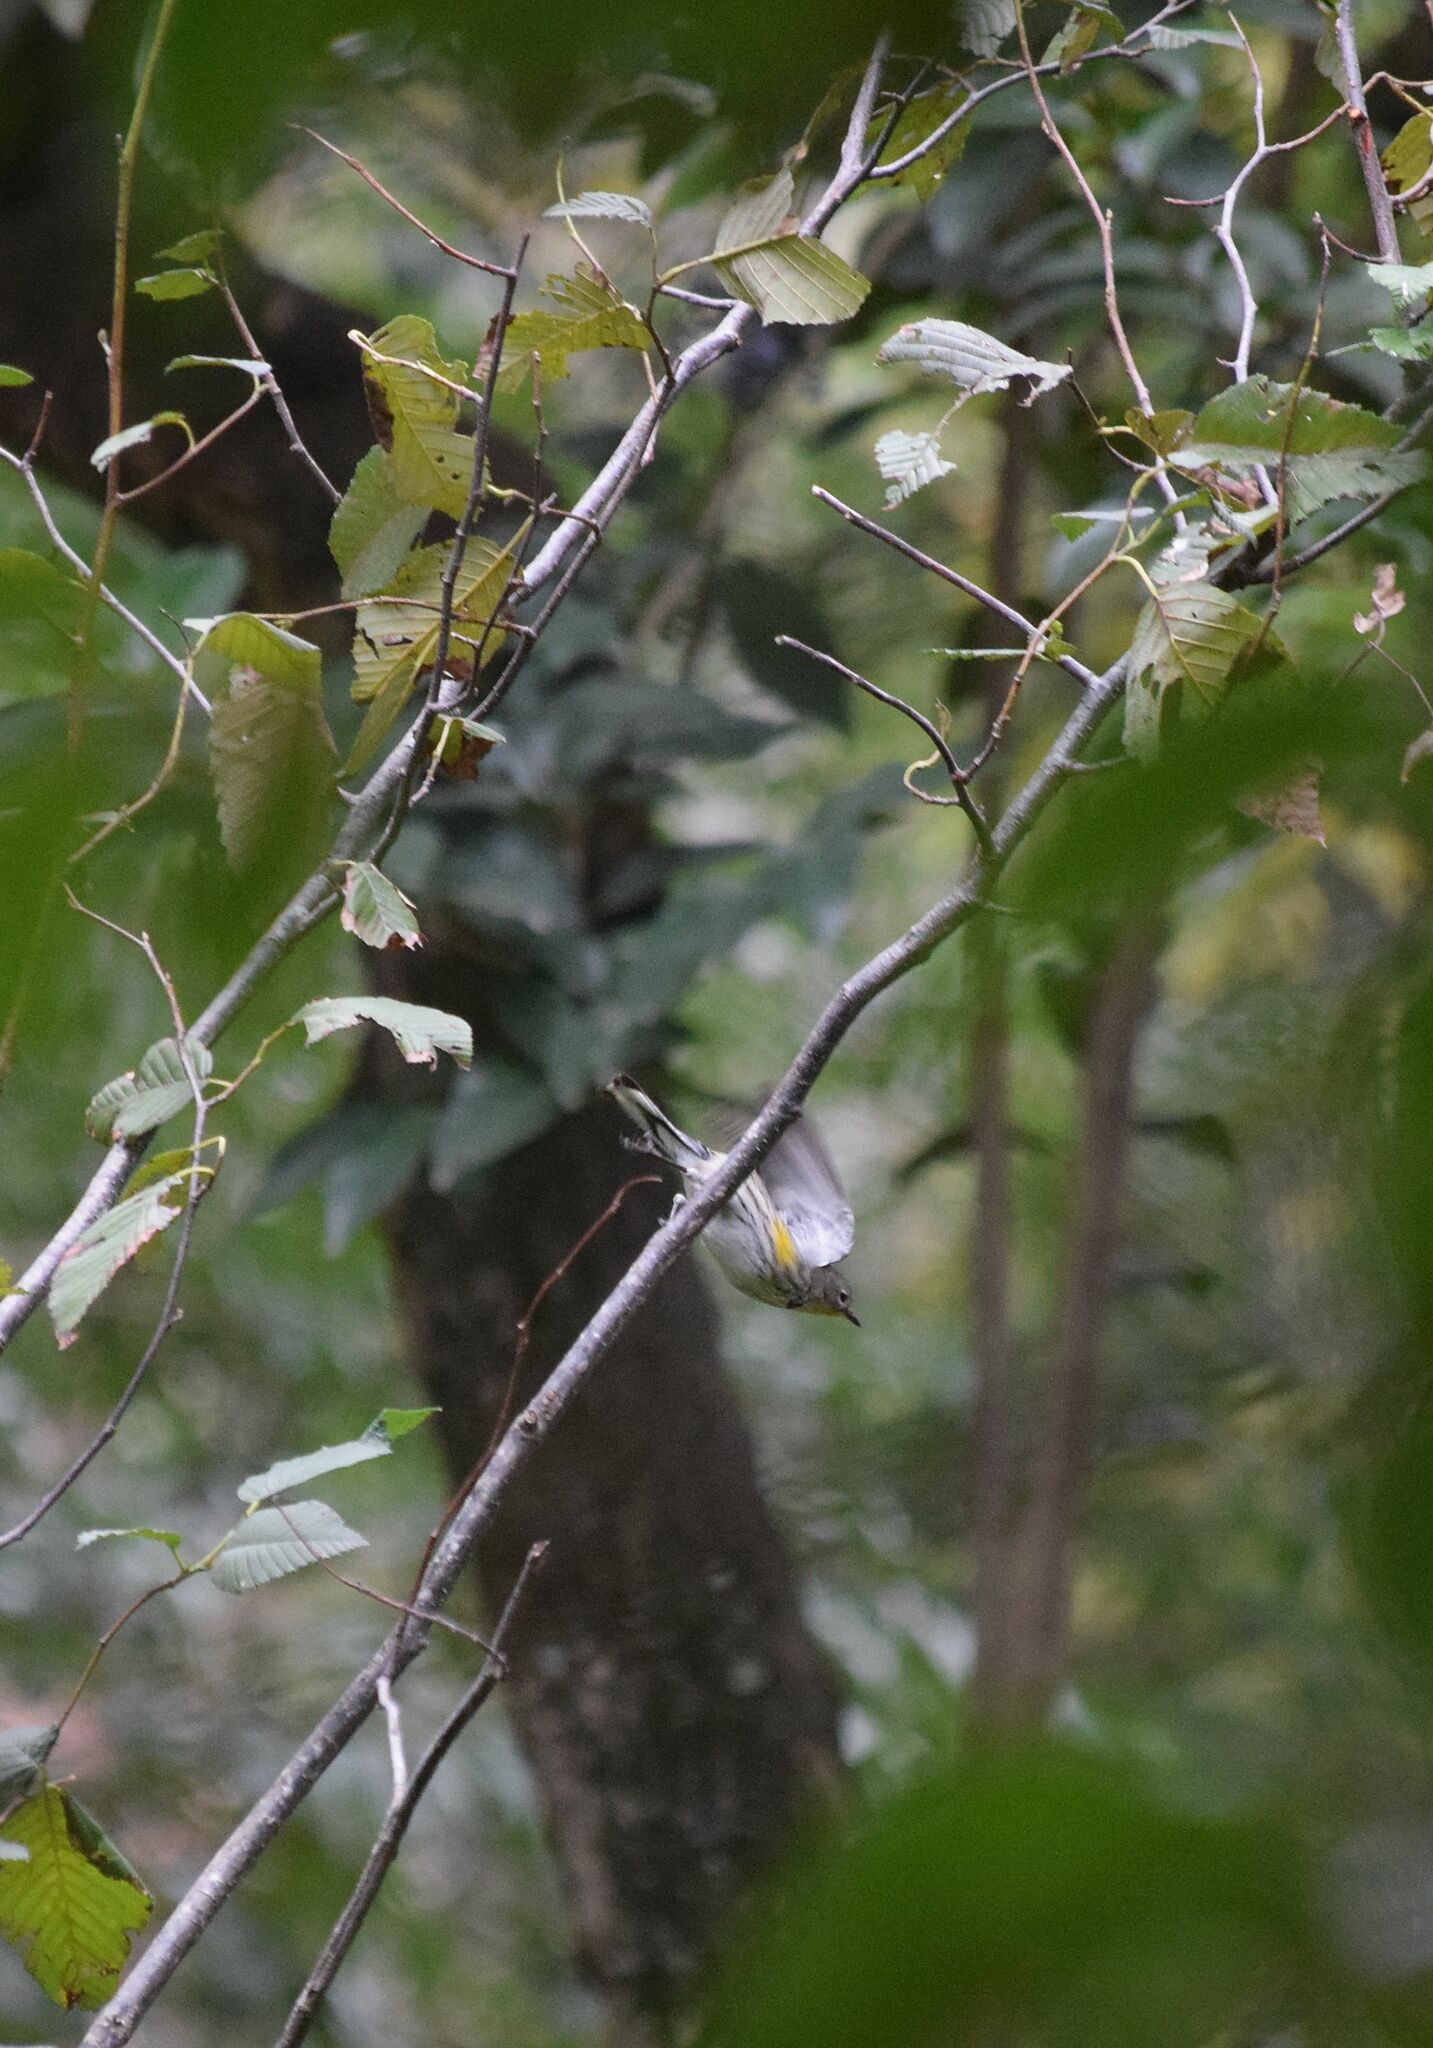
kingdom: Animalia
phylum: Chordata
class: Aves
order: Passeriformes
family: Parulidae
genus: Setophaga
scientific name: Setophaga coronata
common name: Myrtle warbler
